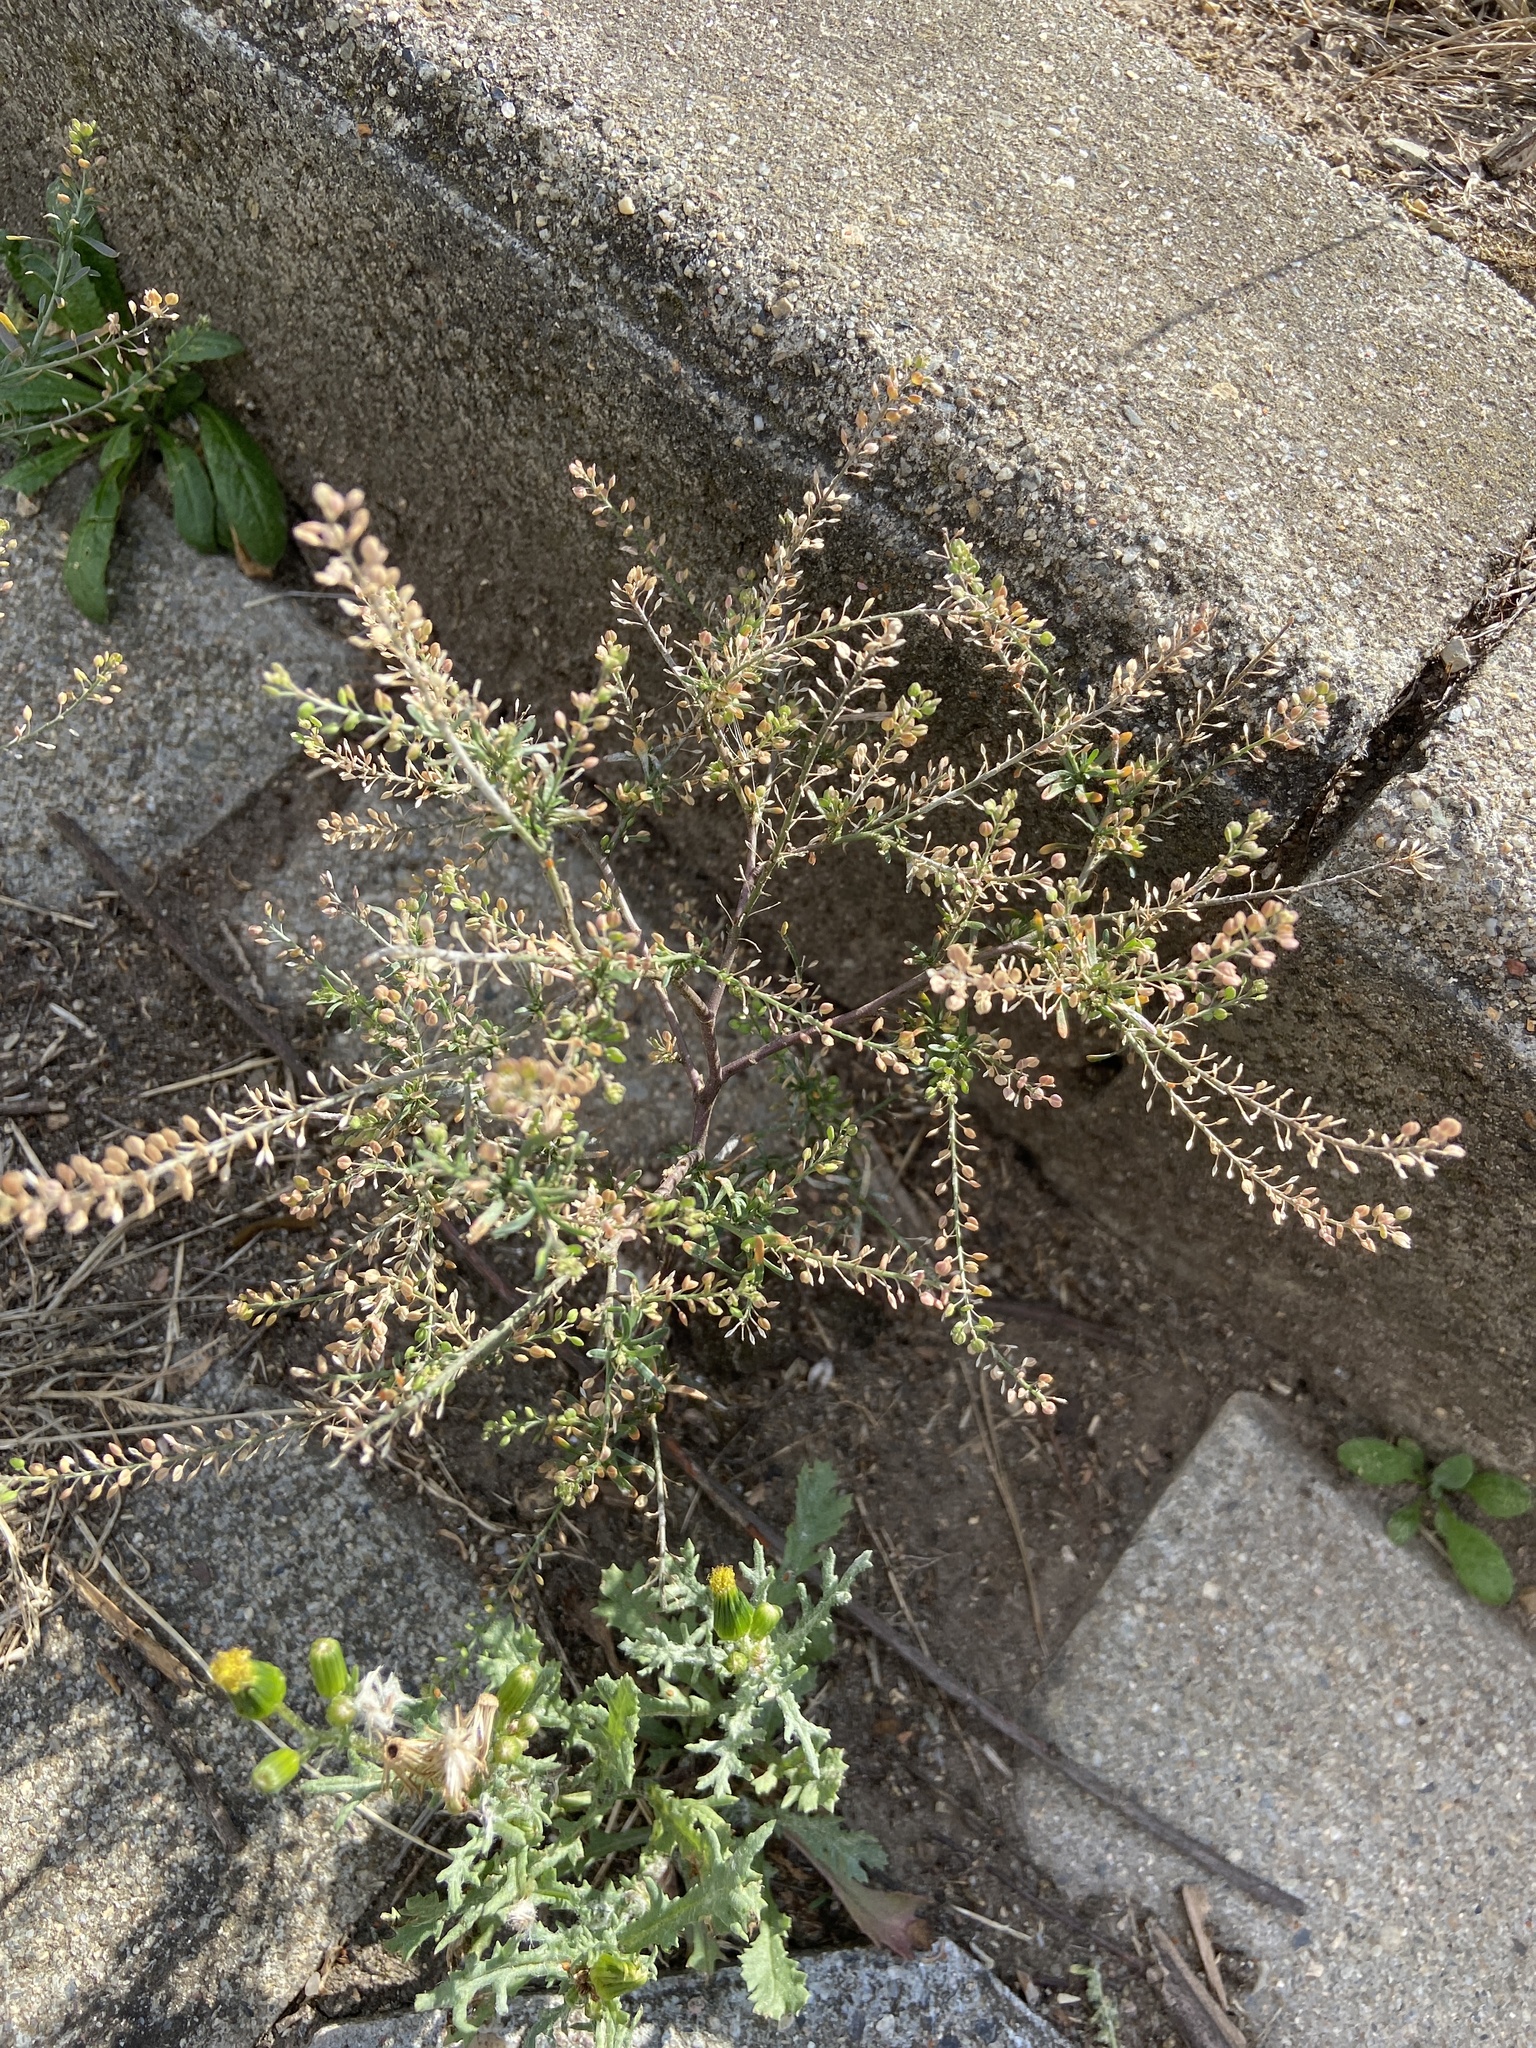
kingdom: Plantae
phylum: Tracheophyta
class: Magnoliopsida
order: Brassicales
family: Brassicaceae
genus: Lepidium
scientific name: Lepidium ruderale
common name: Narrow-leaved pepperwort
